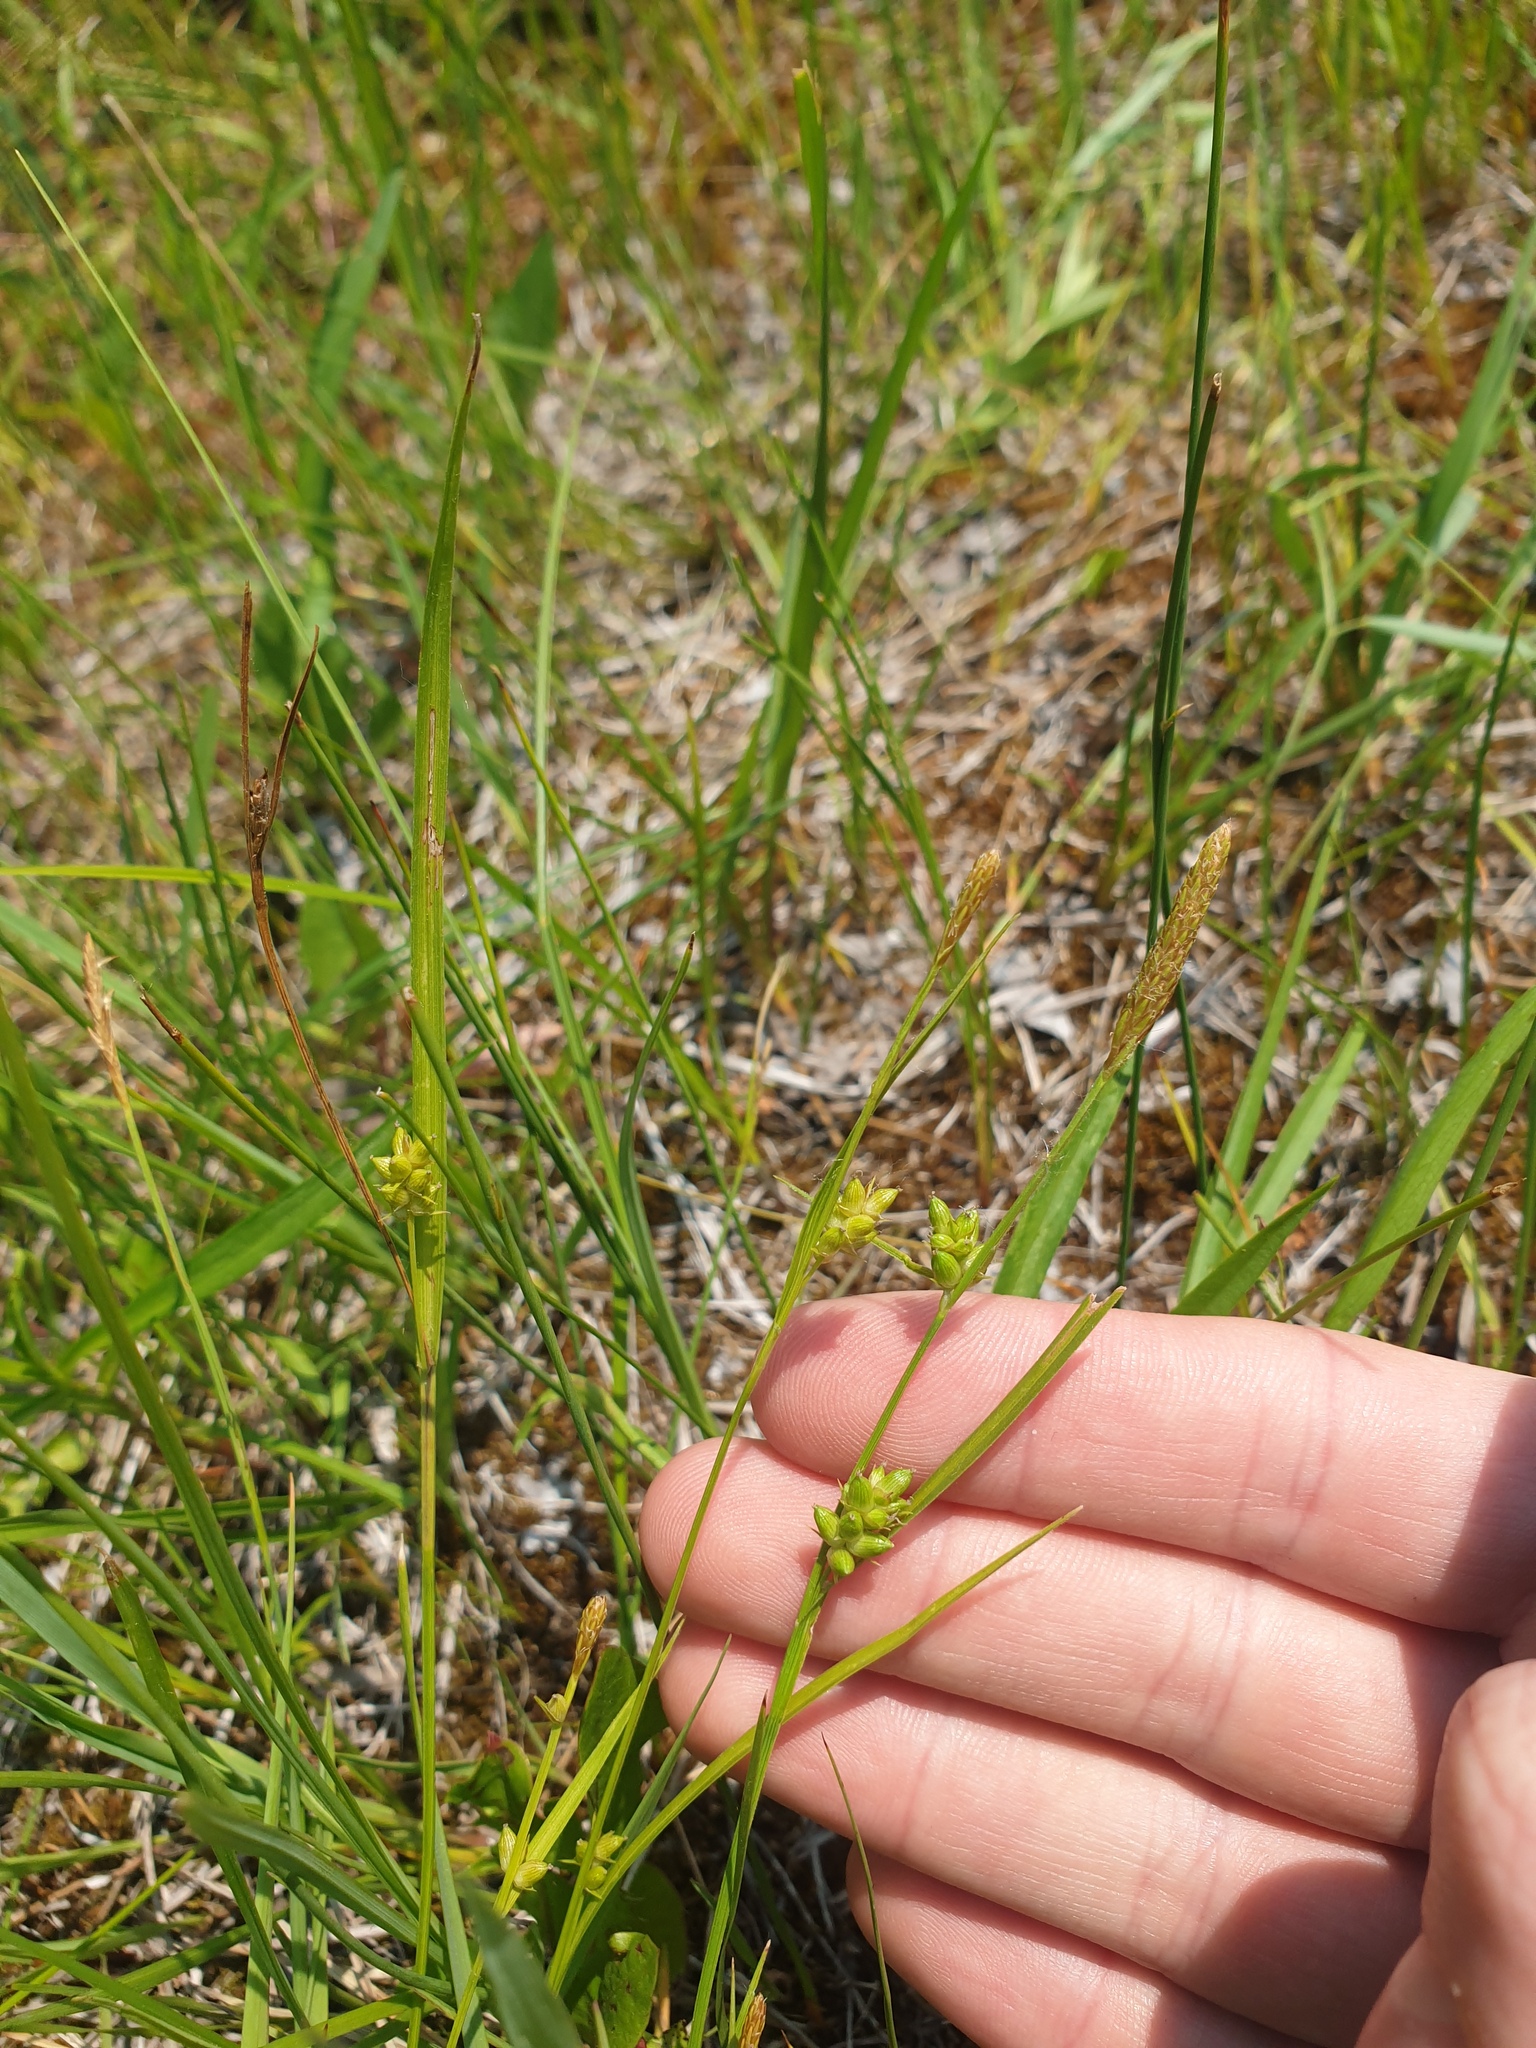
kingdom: Plantae
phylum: Tracheophyta
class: Liliopsida
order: Poales
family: Cyperaceae
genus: Carex
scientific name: Carex conoidea
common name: Cone shaped sedge
